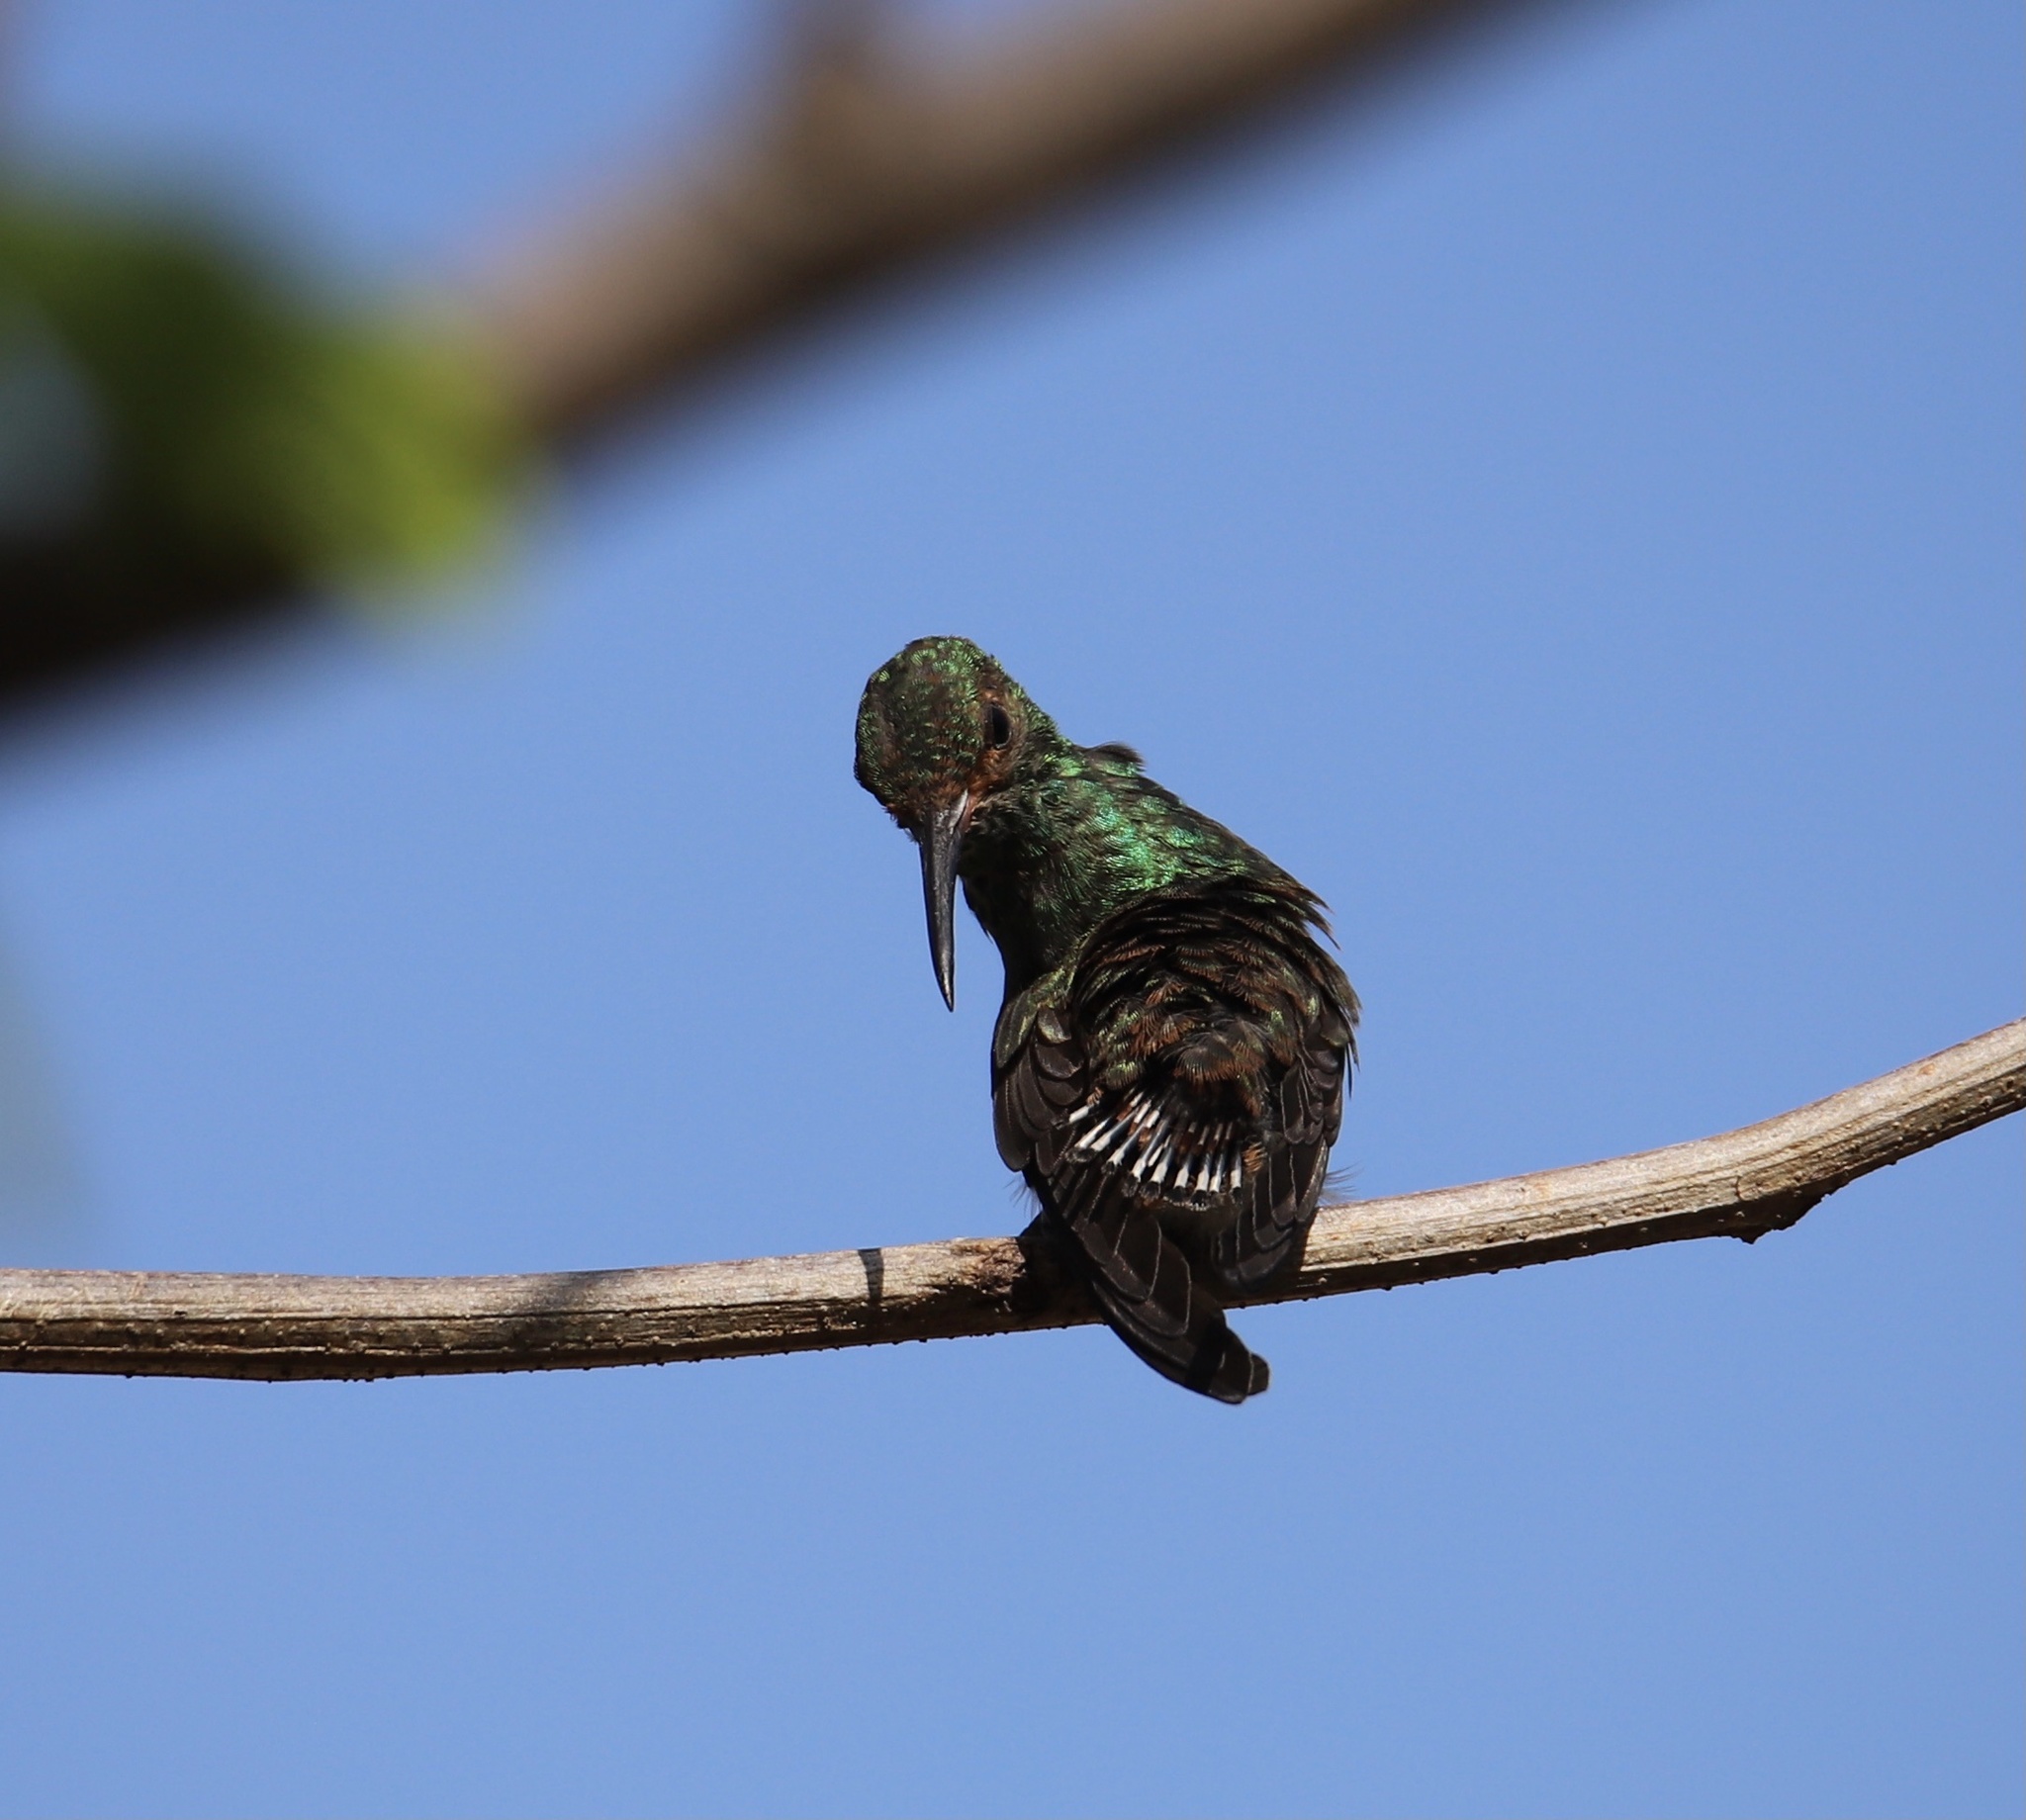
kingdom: Animalia
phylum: Chordata
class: Aves
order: Apodiformes
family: Trochilidae
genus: Amazilia
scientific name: Amazilia tzacatl
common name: Rufous-tailed hummingbird
